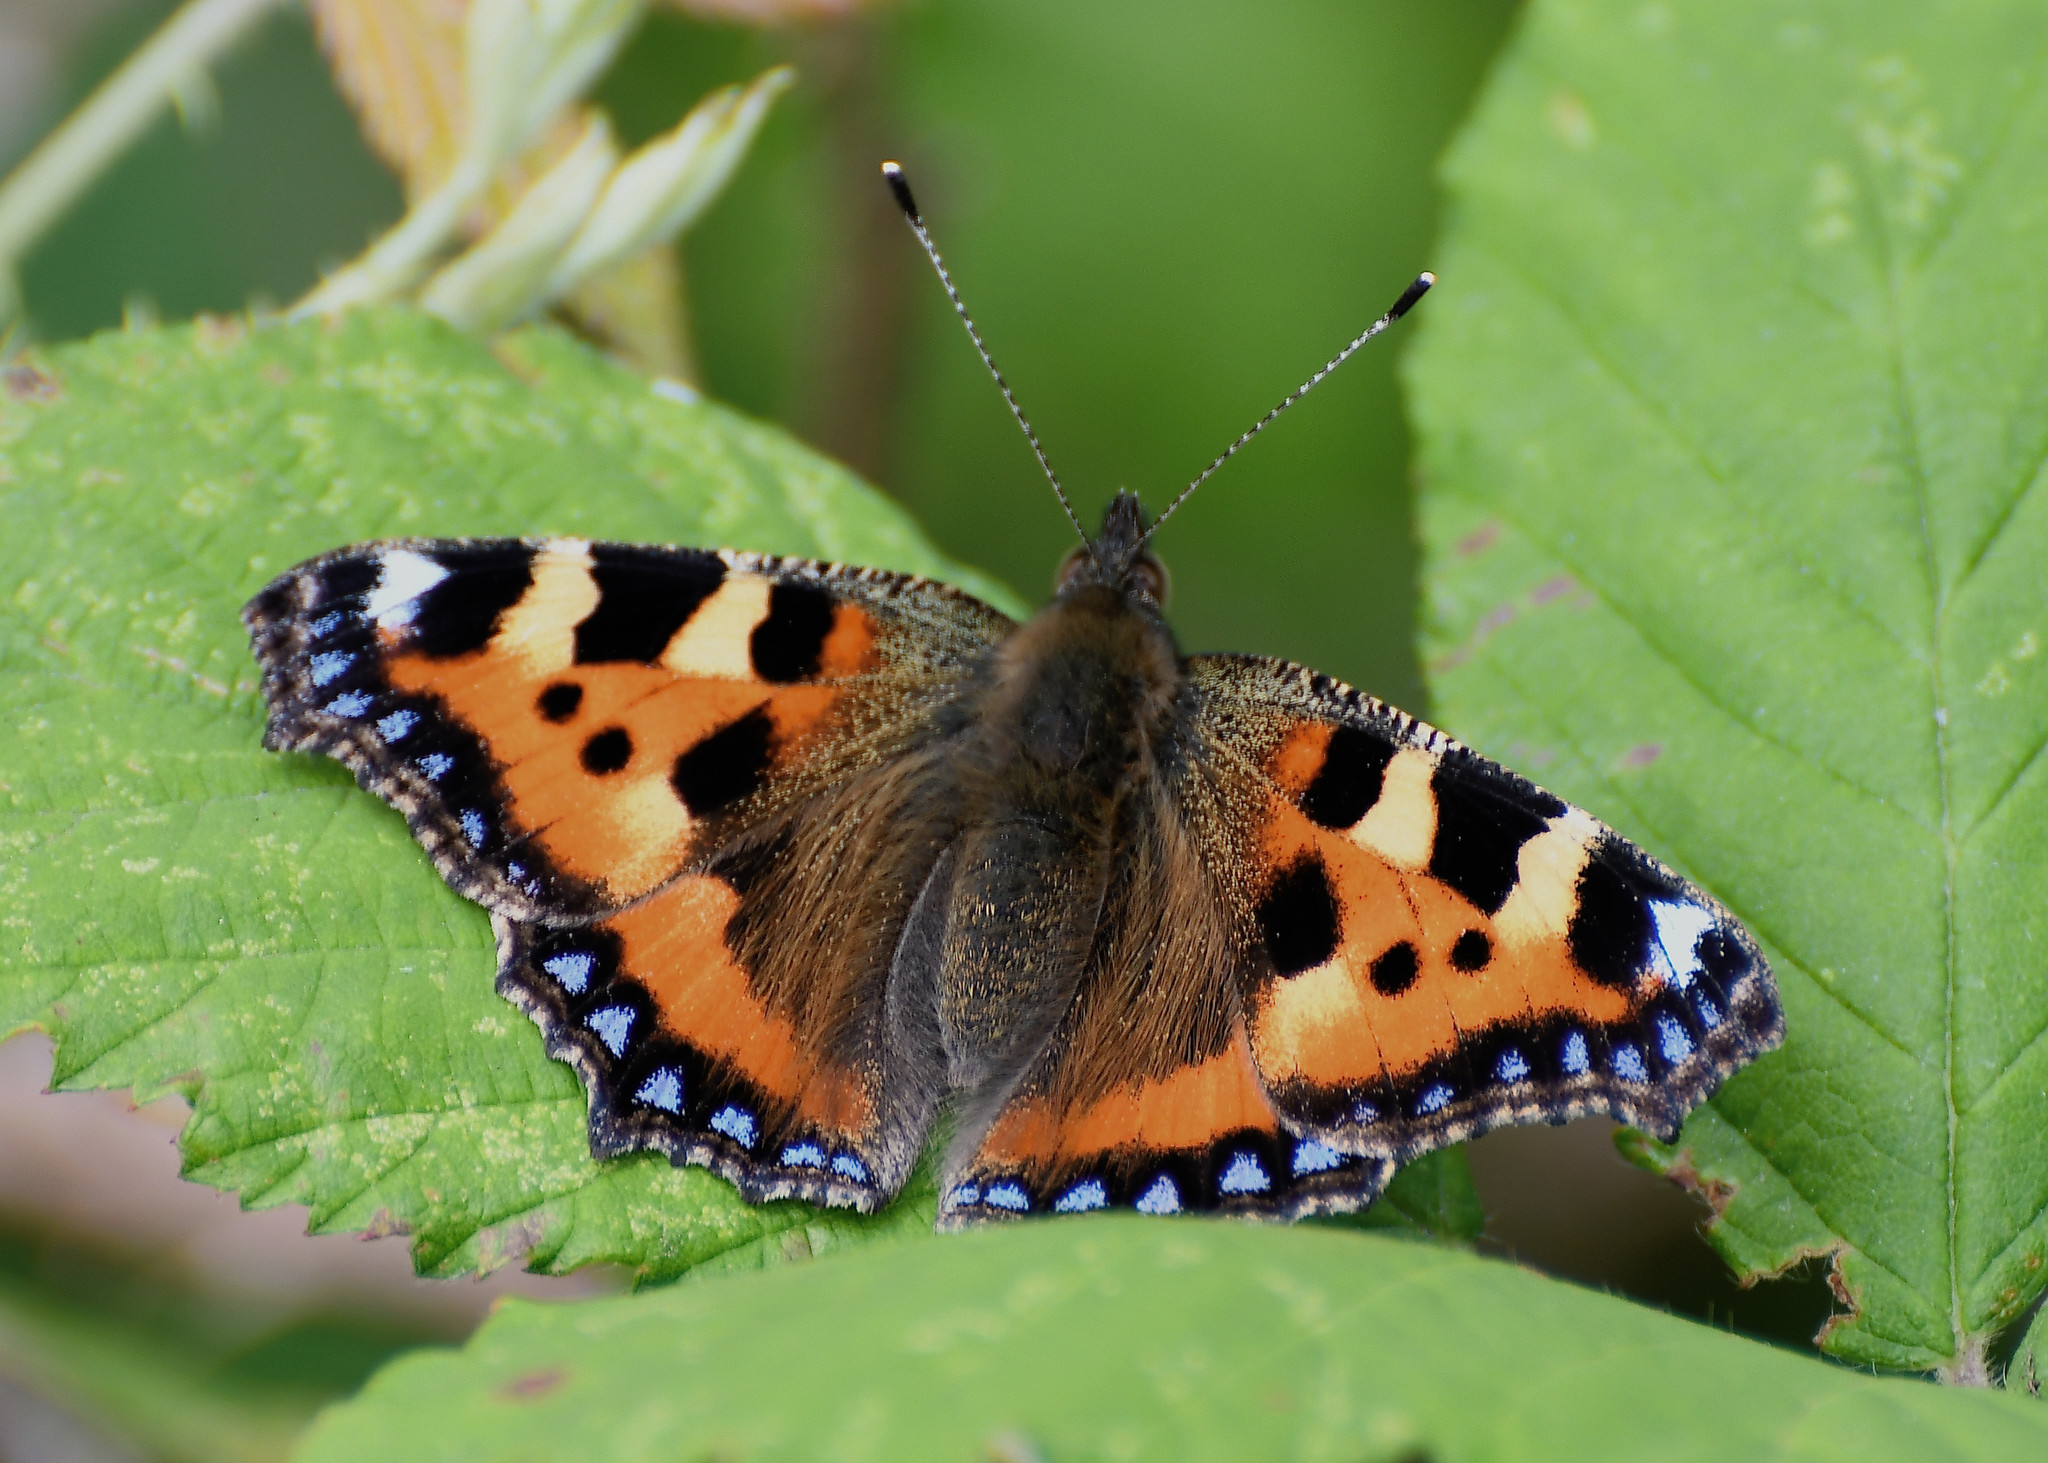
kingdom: Animalia
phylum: Arthropoda
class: Insecta
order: Lepidoptera
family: Nymphalidae
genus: Aglais
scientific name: Aglais urticae
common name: Small tortoiseshell
